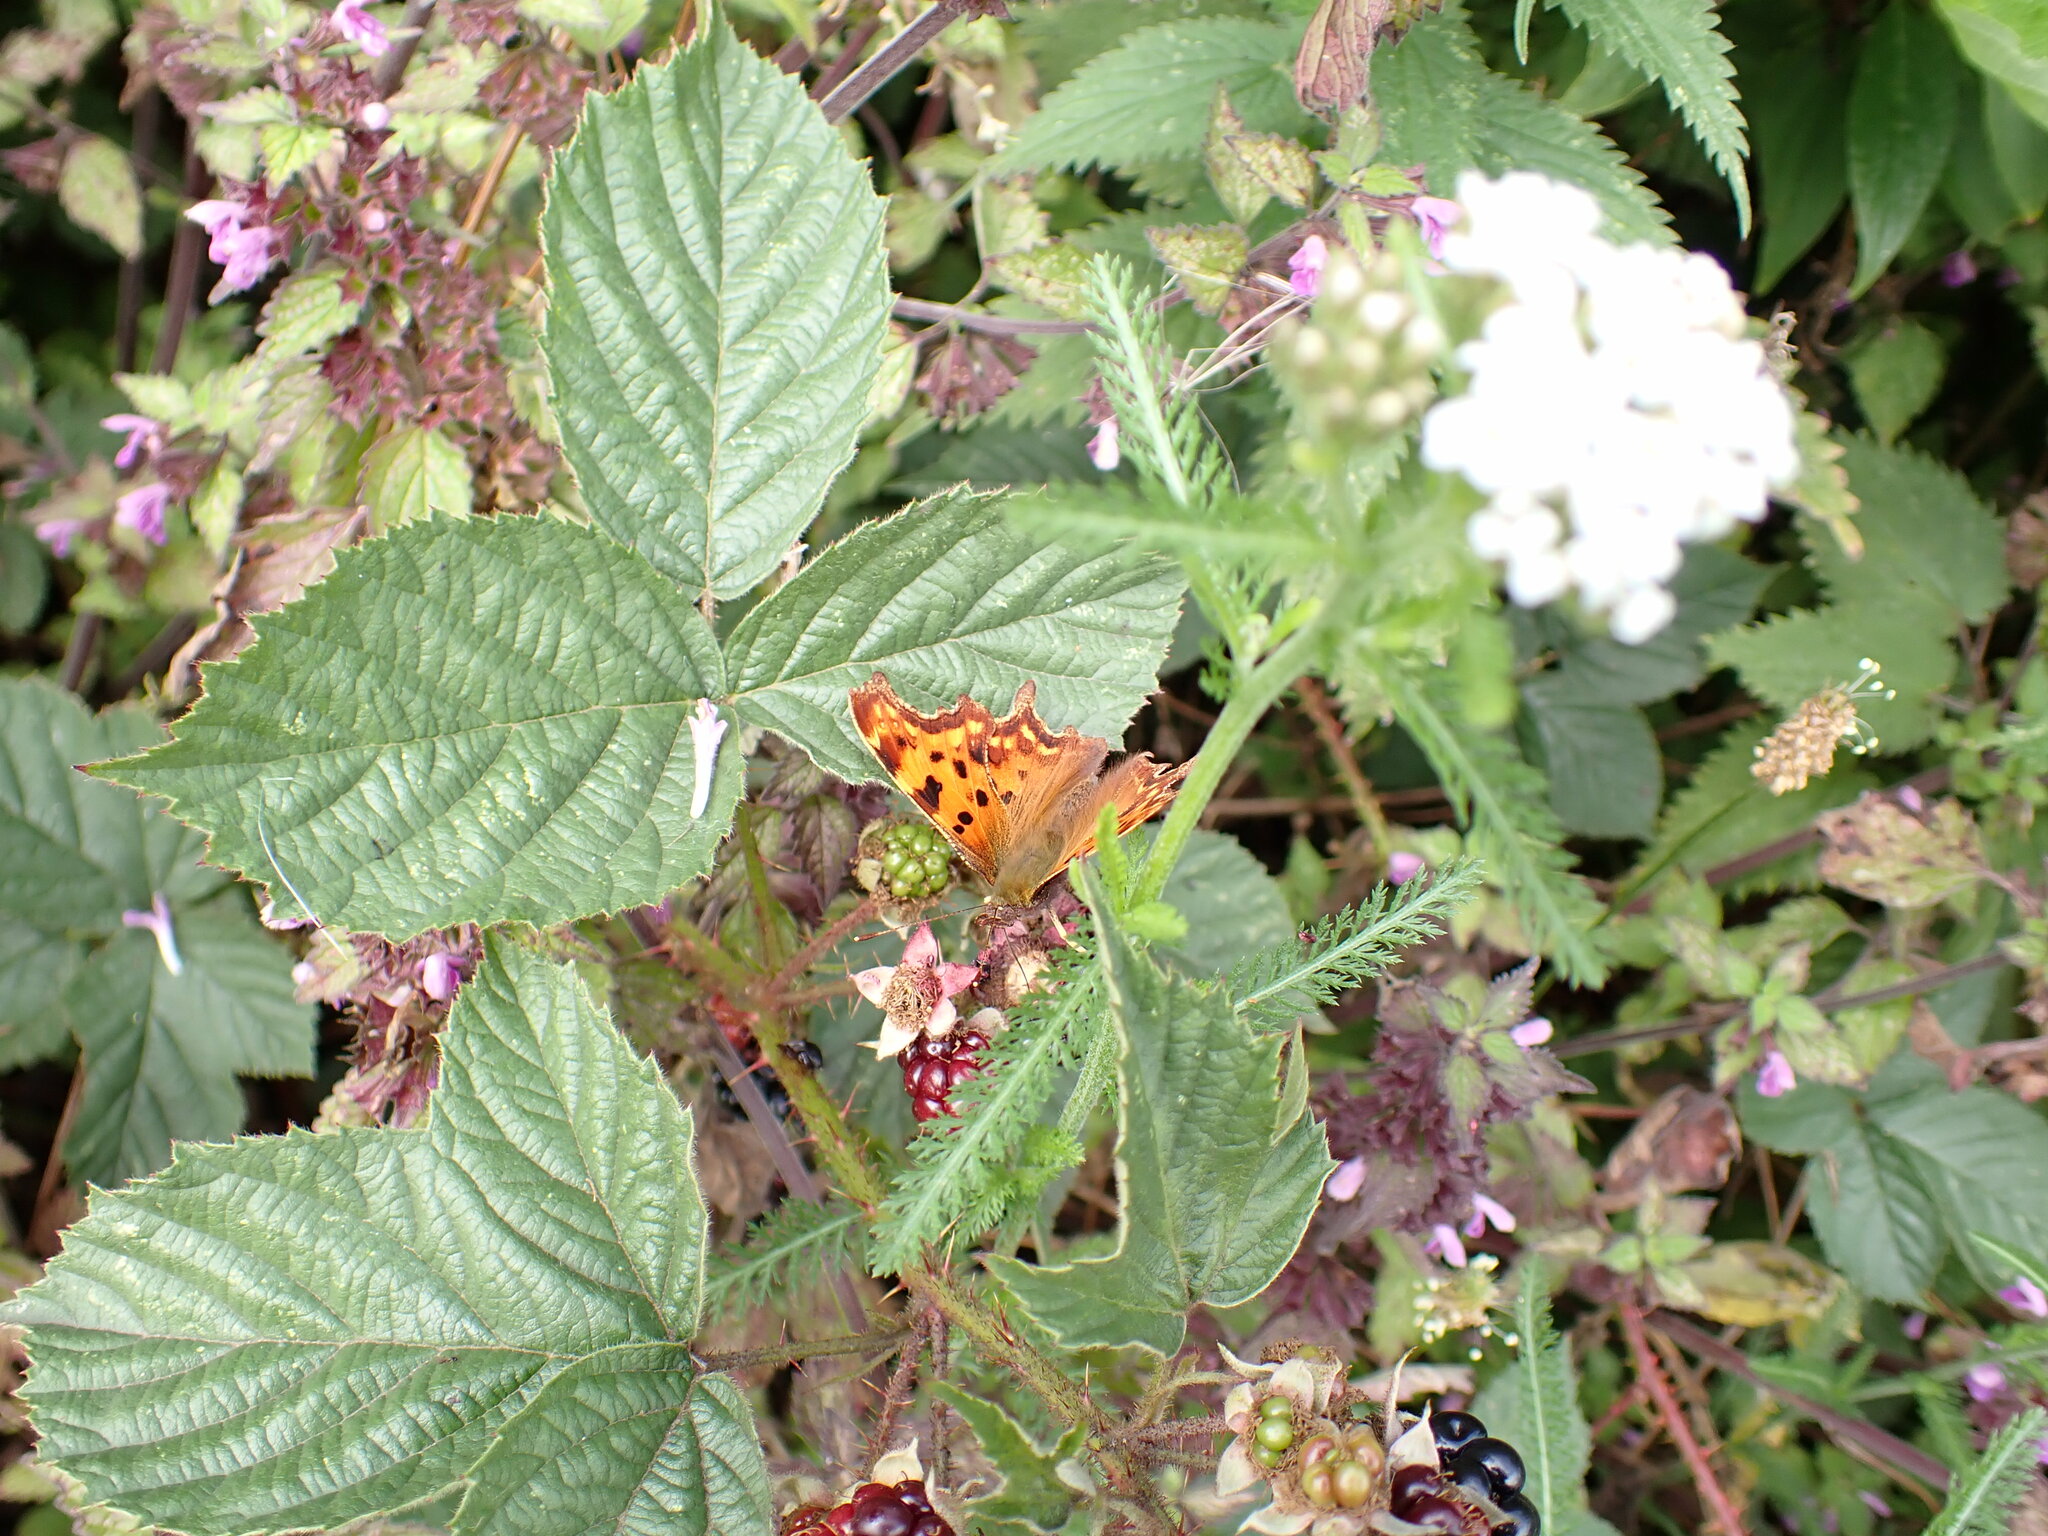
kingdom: Animalia
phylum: Arthropoda
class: Insecta
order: Lepidoptera
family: Nymphalidae
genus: Polygonia
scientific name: Polygonia c-album
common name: Comma
